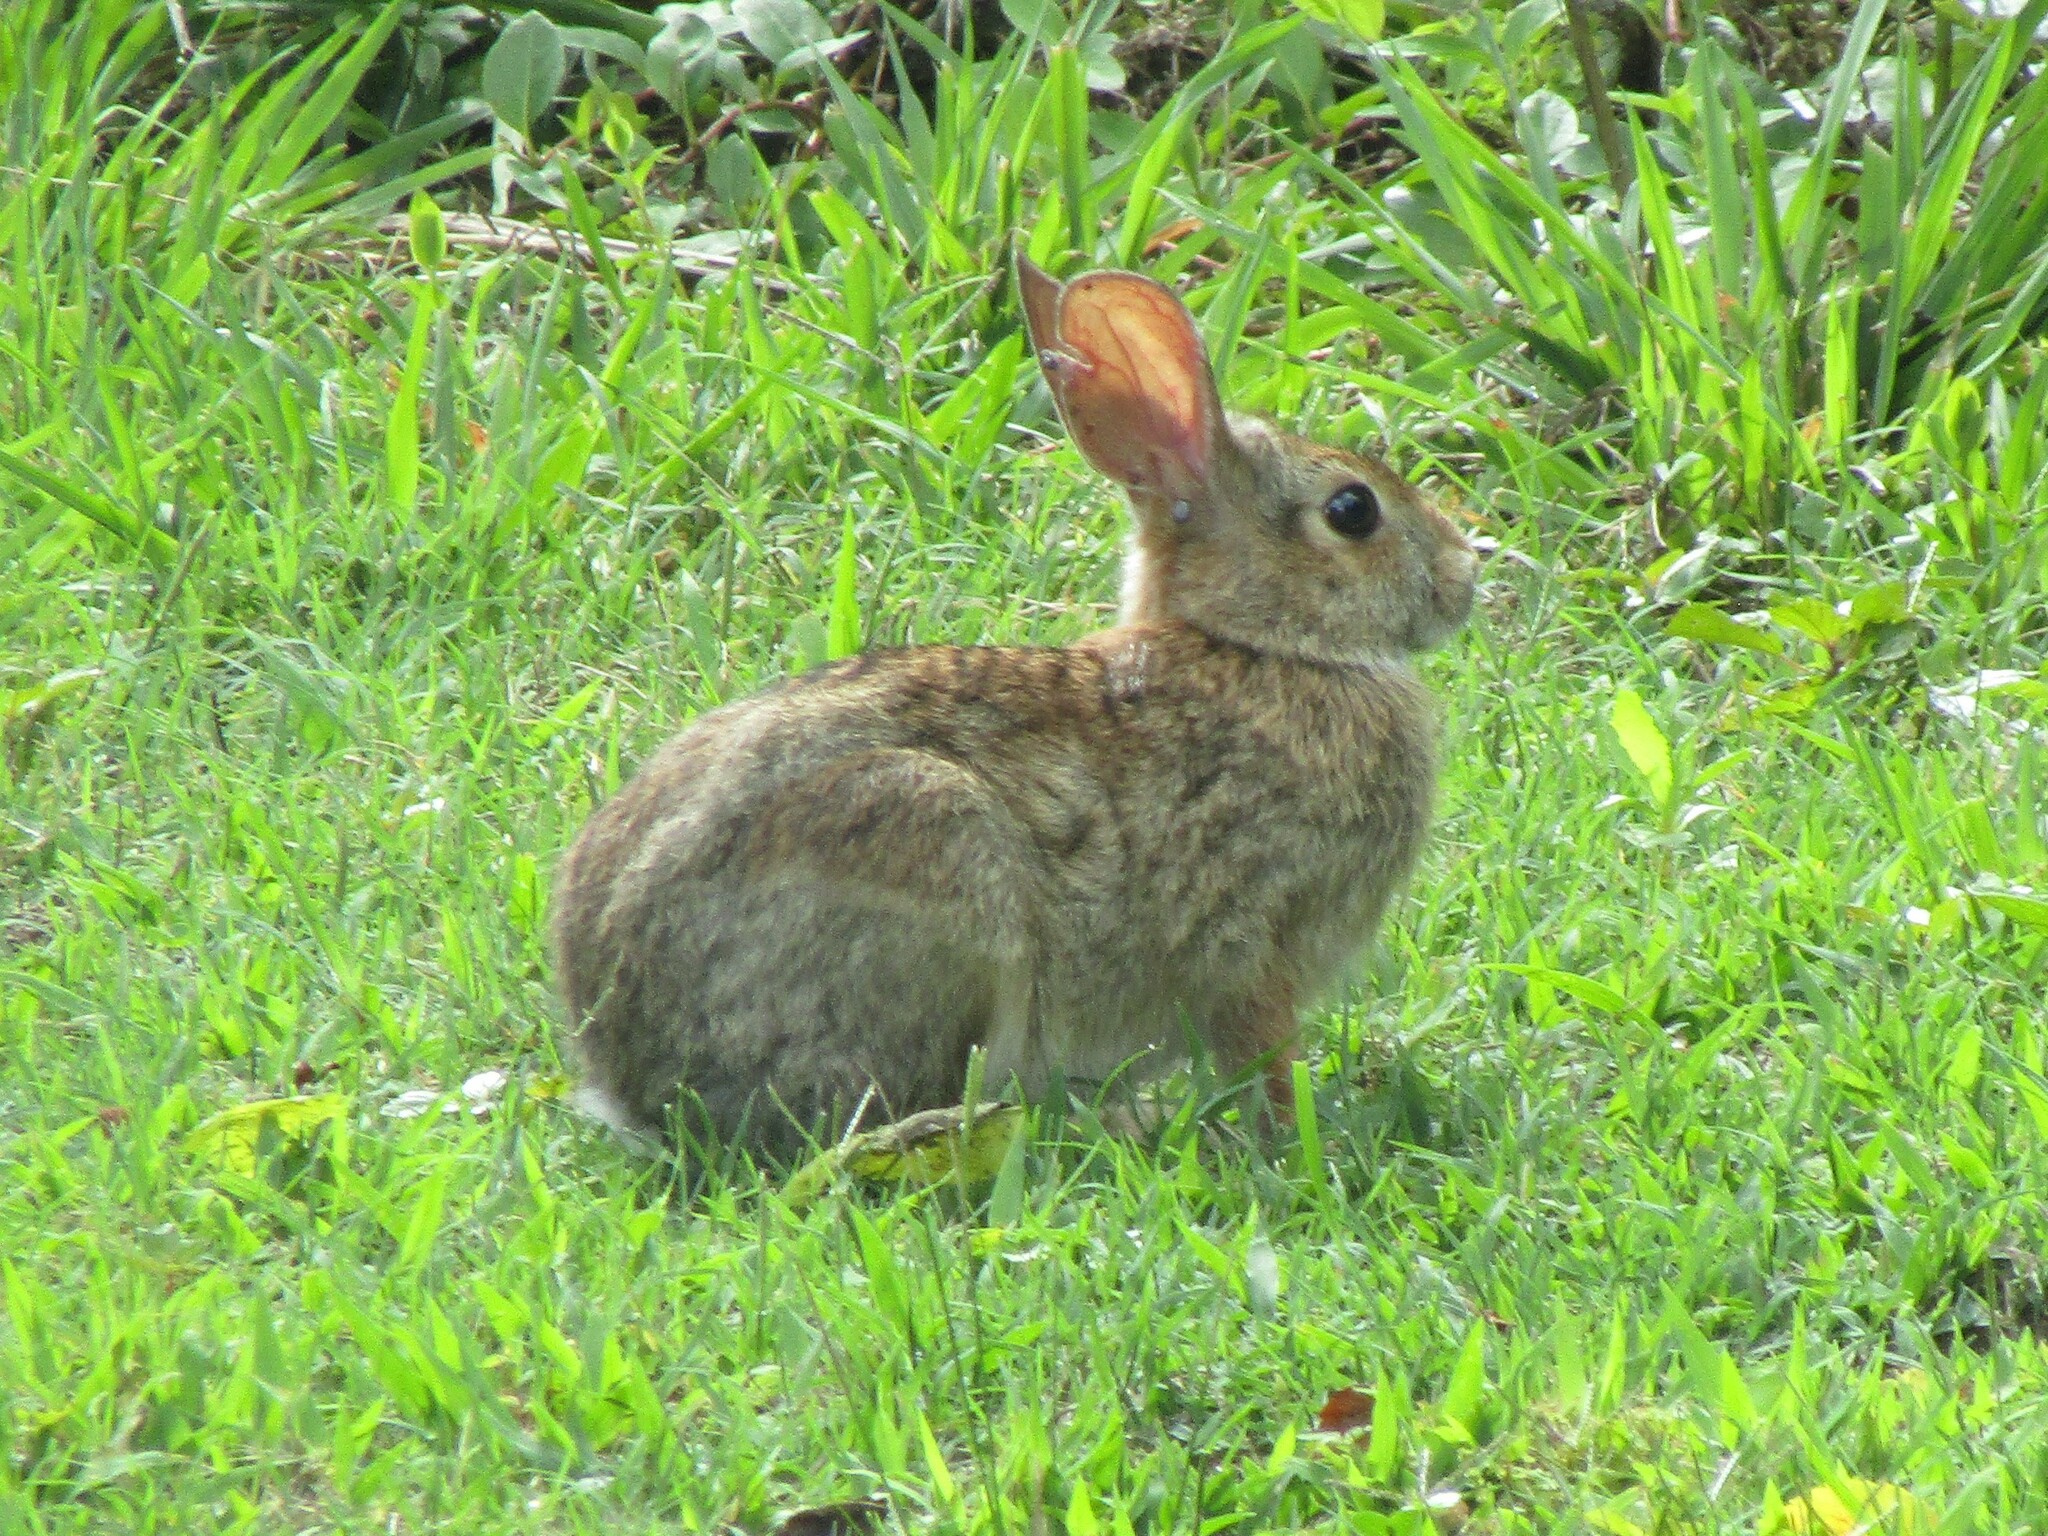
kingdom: Animalia
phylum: Chordata
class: Mammalia
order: Lagomorpha
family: Leporidae
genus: Sylvilagus
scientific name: Sylvilagus floridanus
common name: Eastern cottontail
